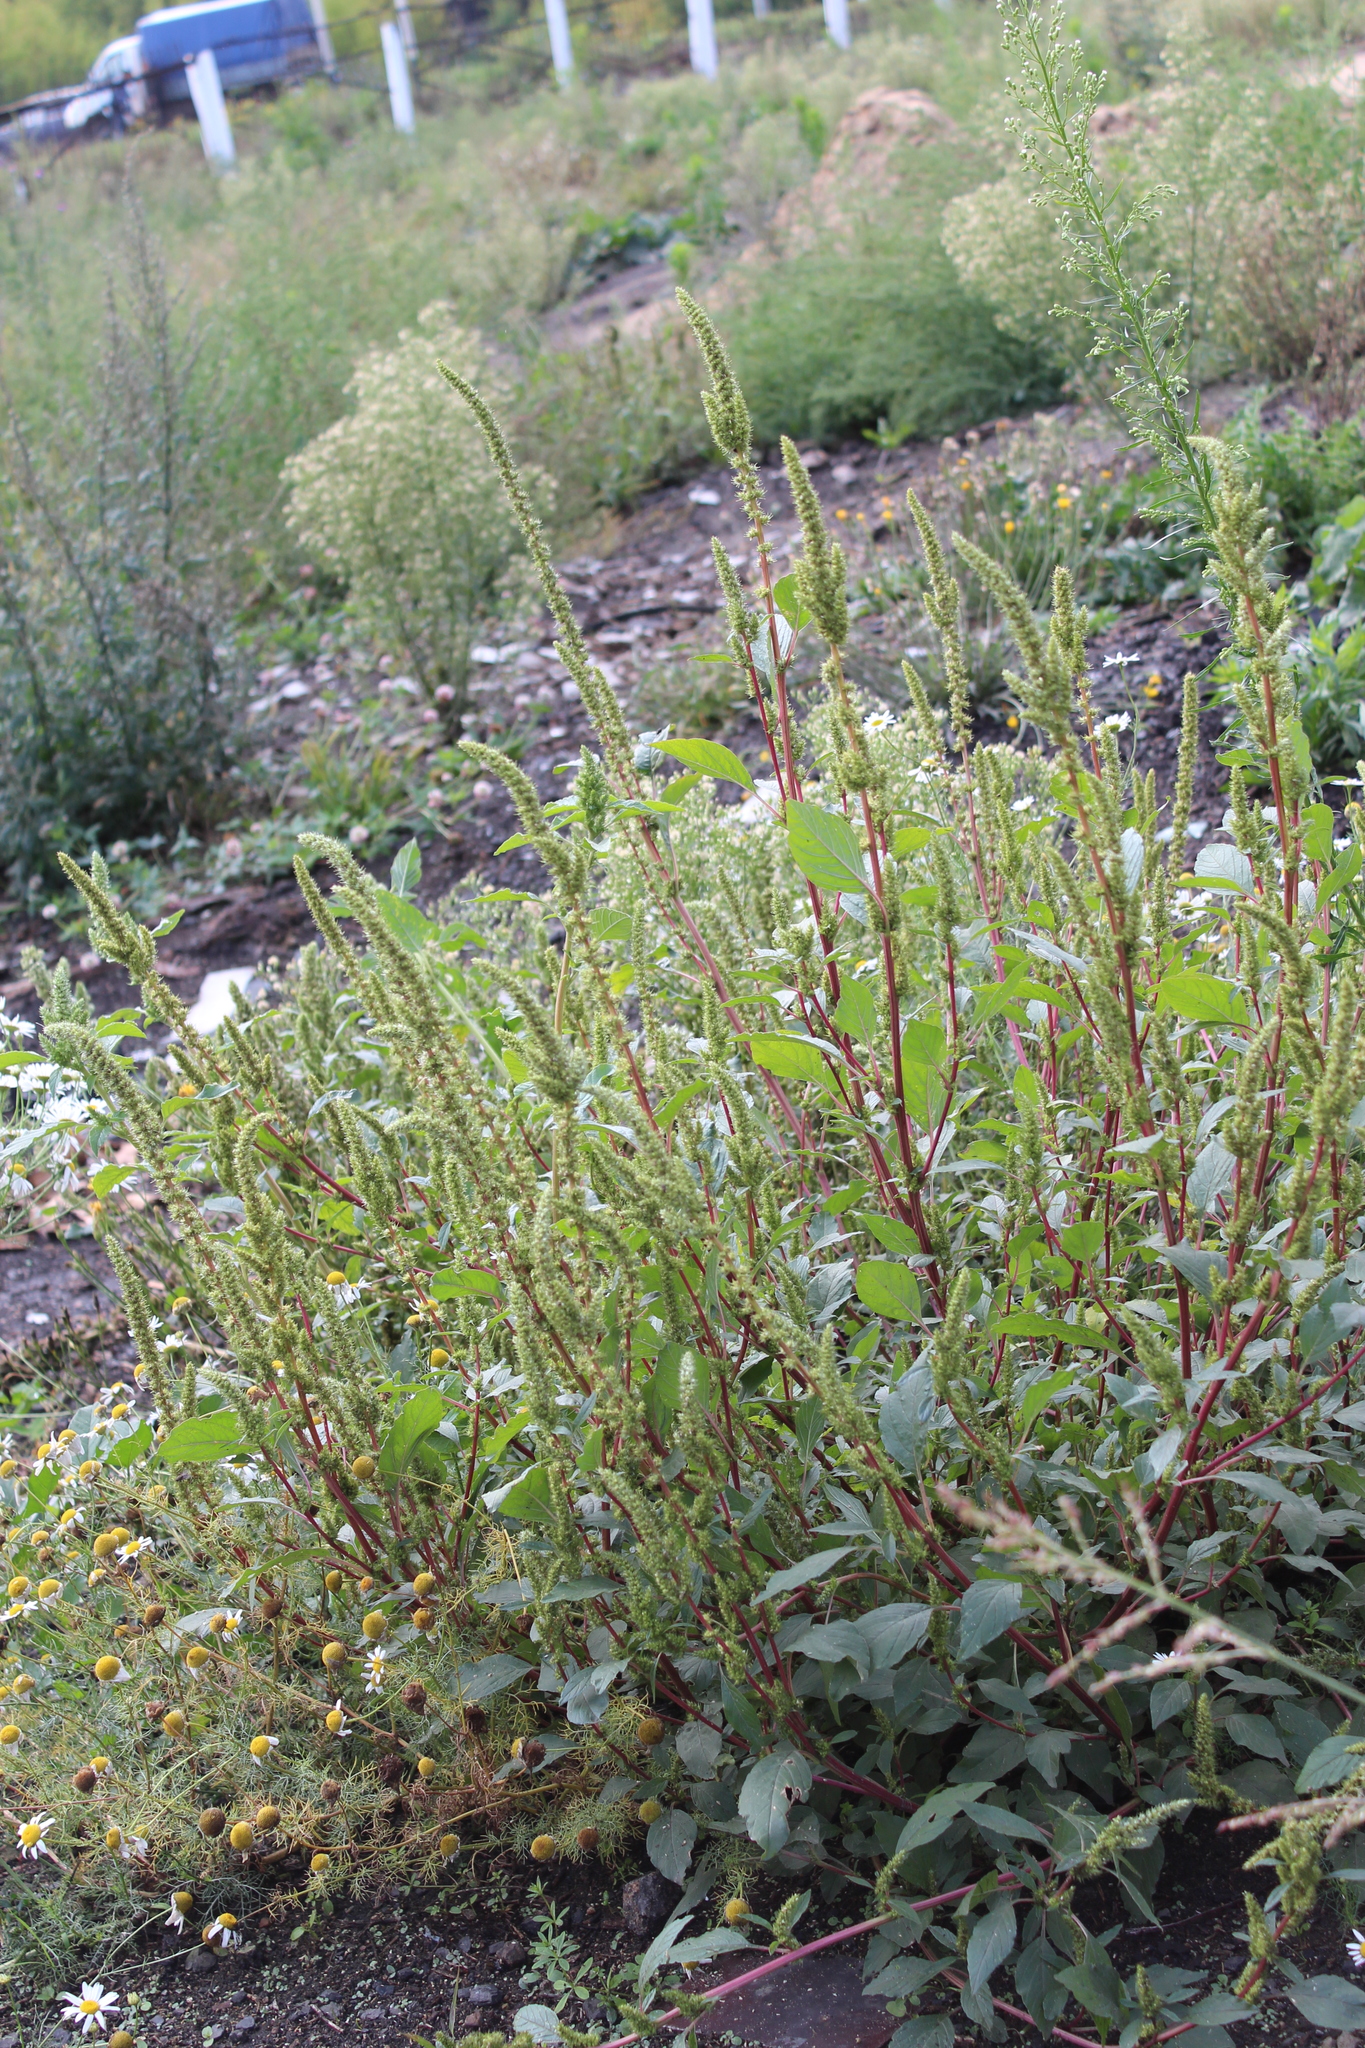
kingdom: Plantae
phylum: Tracheophyta
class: Magnoliopsida
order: Caryophyllales
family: Amaranthaceae
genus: Amaranthus
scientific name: Amaranthus powellii
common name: Powell's amaranth
